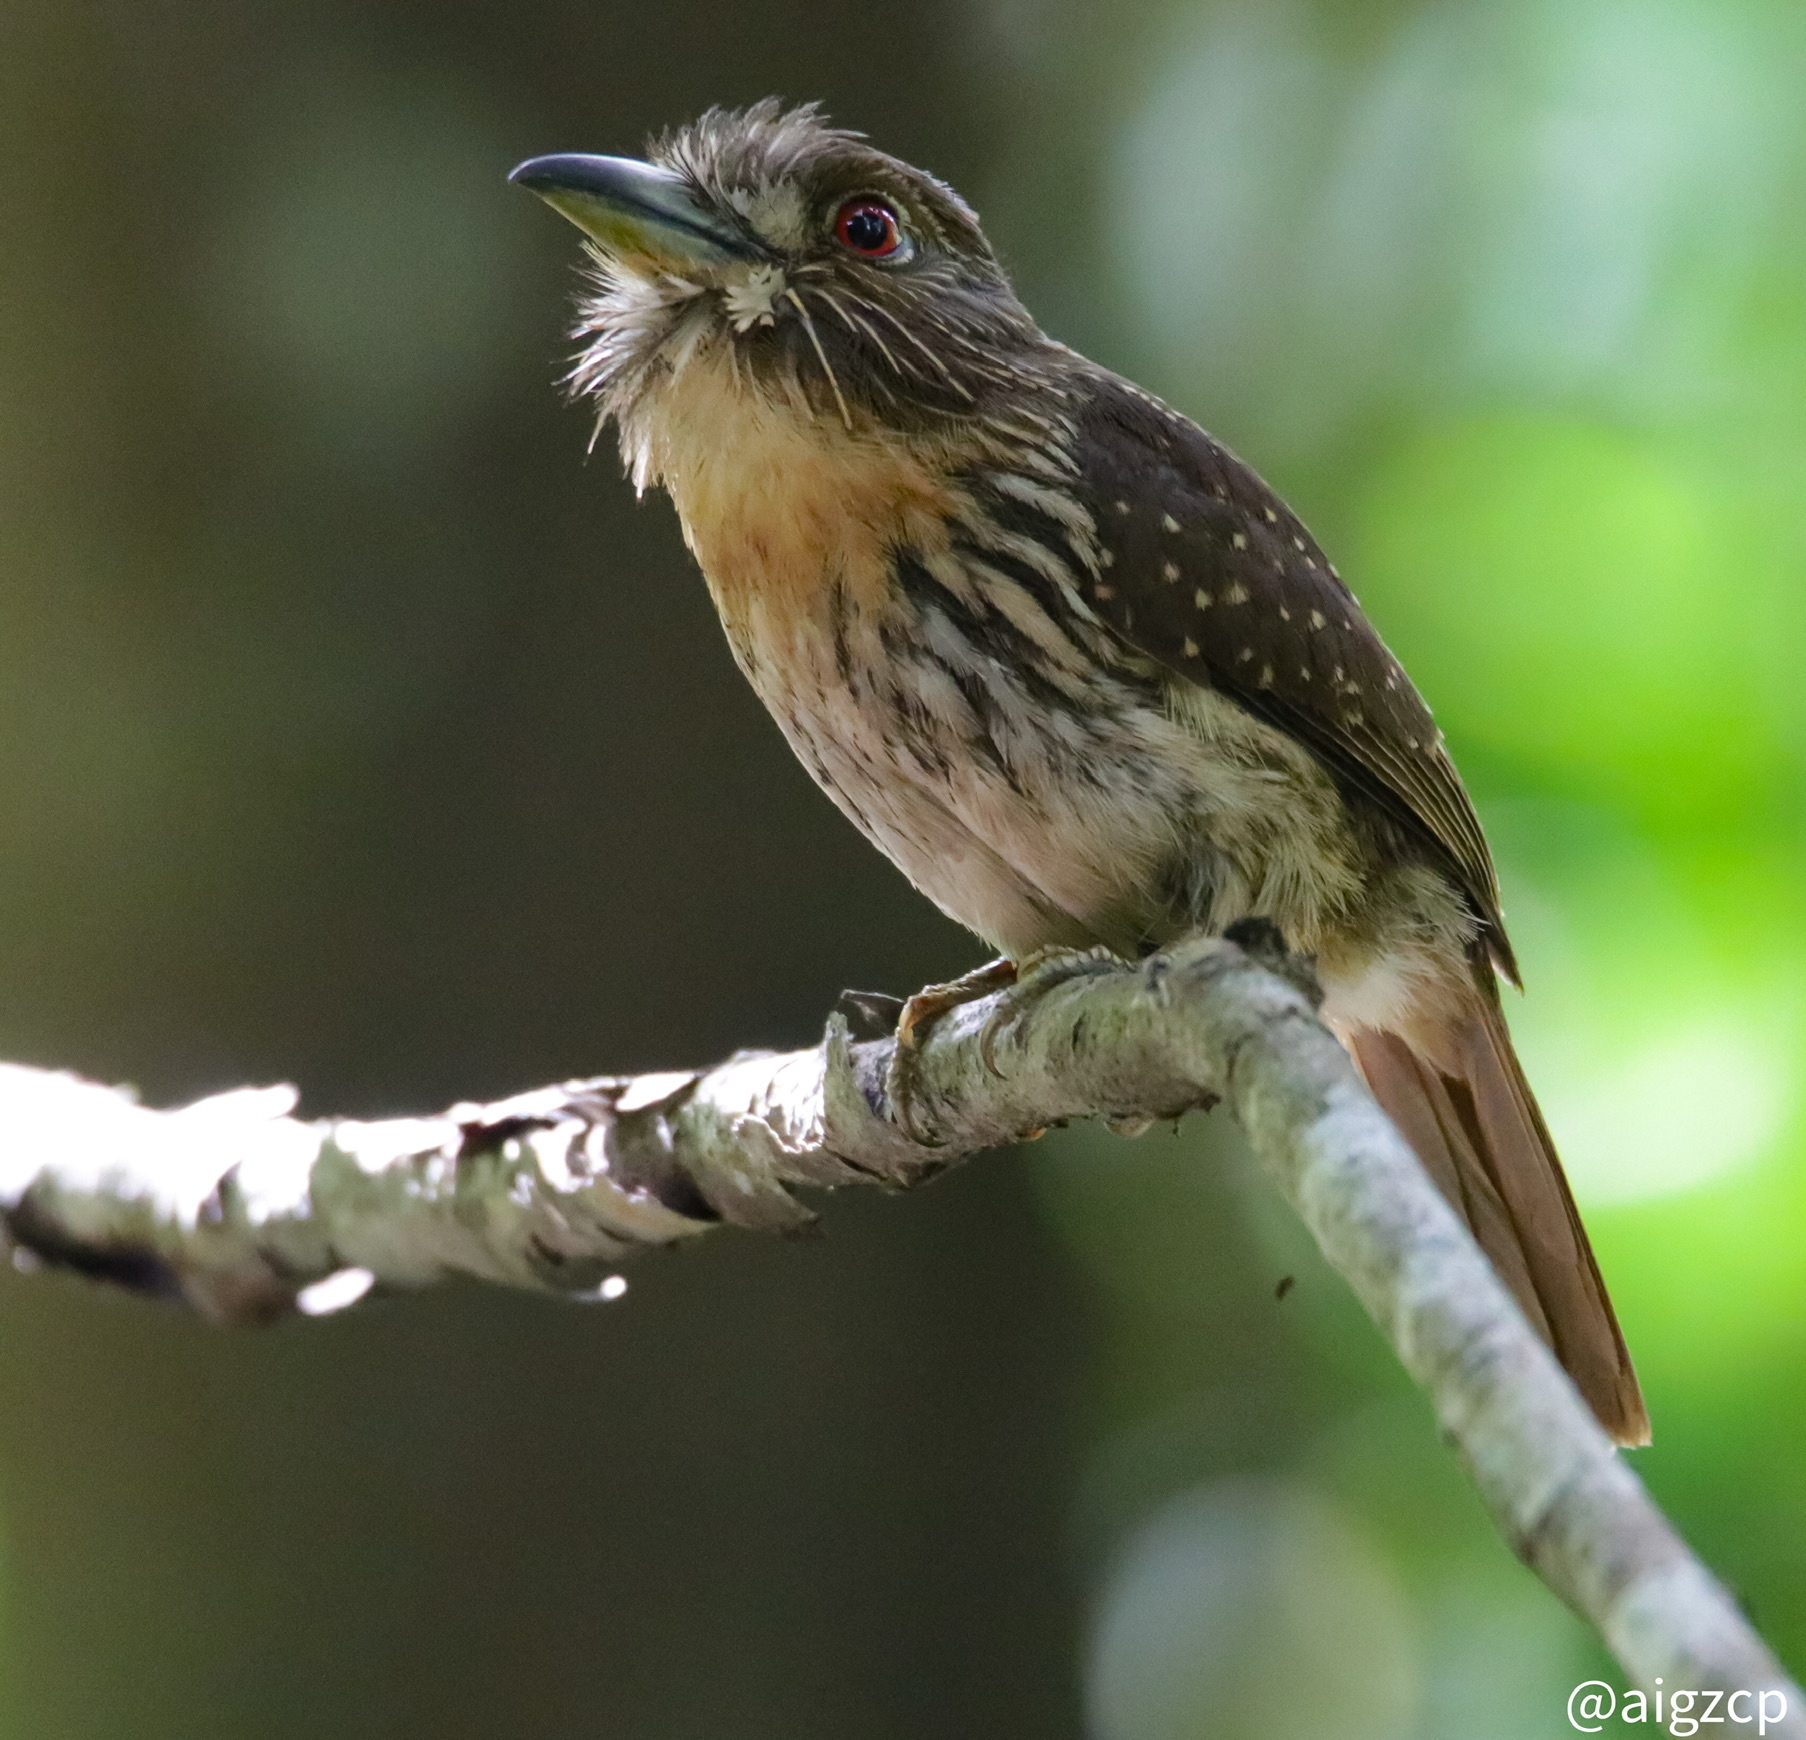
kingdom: Animalia
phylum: Chordata
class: Aves
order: Piciformes
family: Bucconidae
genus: Malacoptila
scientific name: Malacoptila panamensis
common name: White-whiskered puffbird
